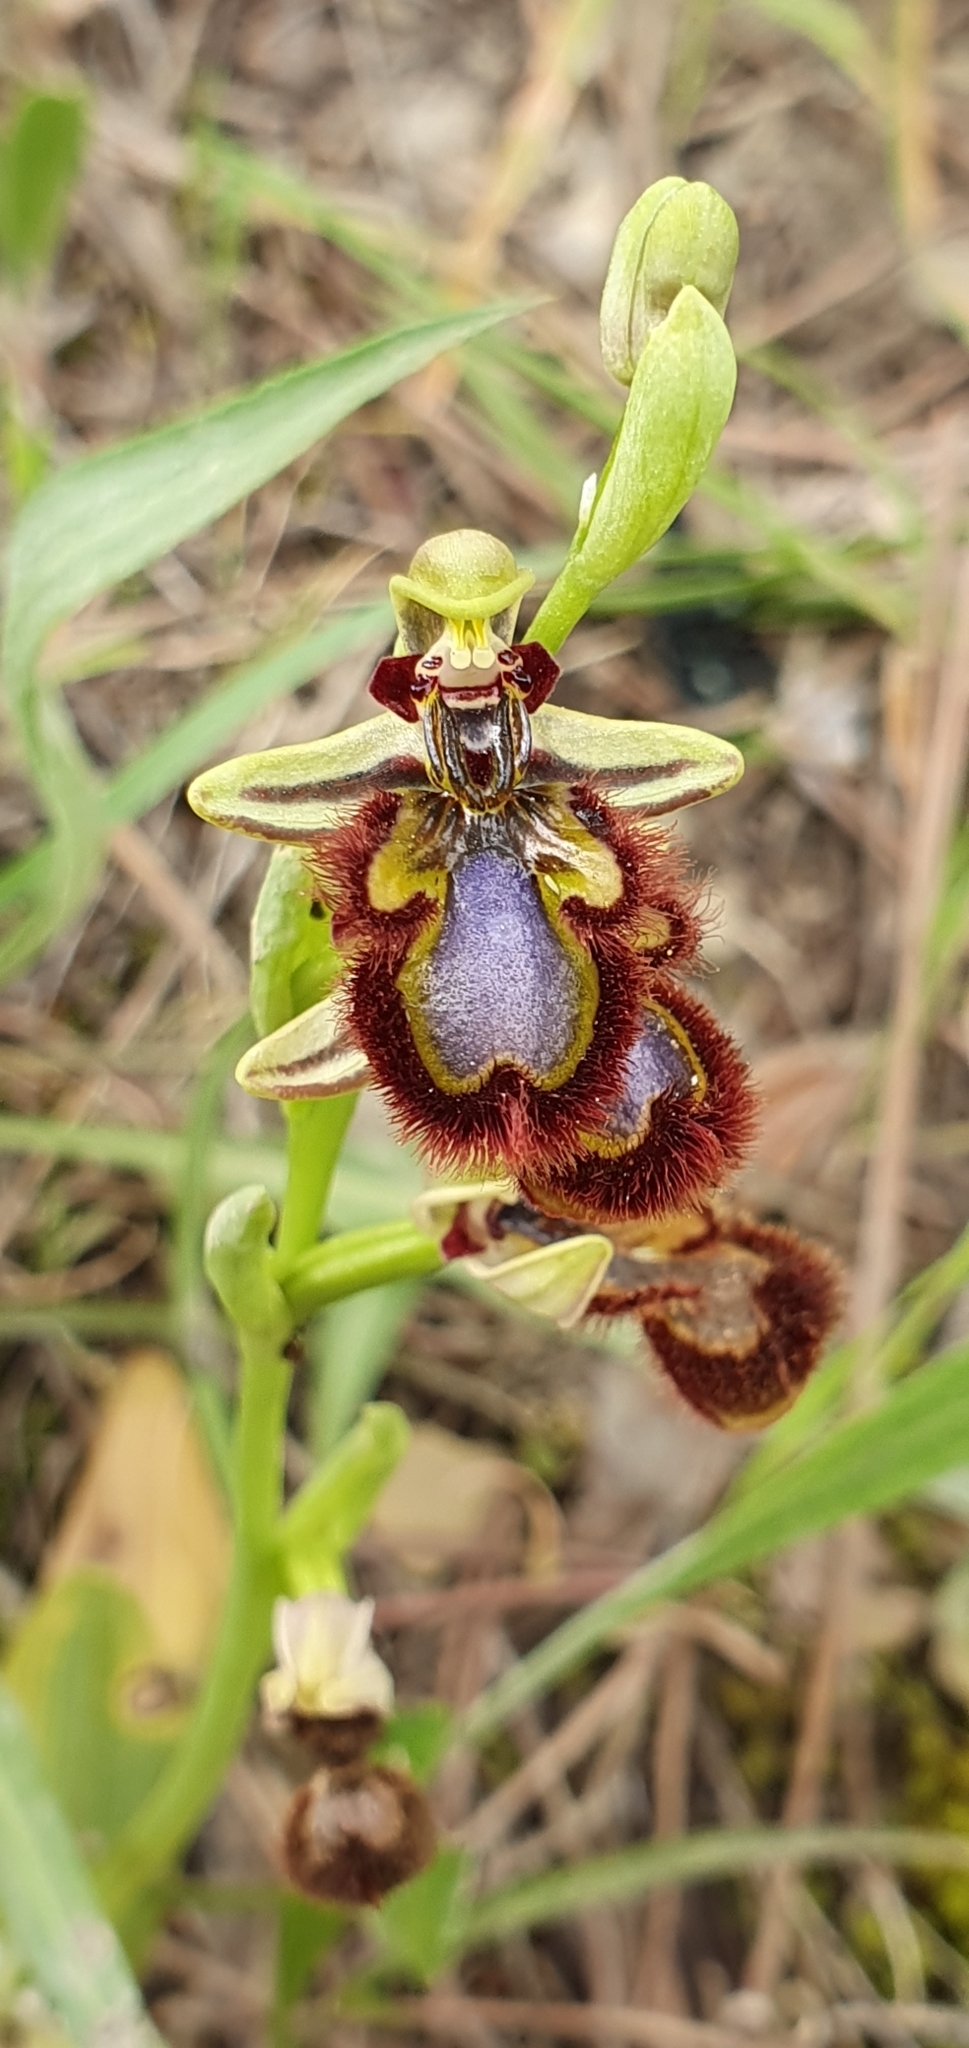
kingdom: Plantae
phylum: Tracheophyta
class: Liliopsida
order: Asparagales
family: Orchidaceae
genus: Ophrys
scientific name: Ophrys speculum
